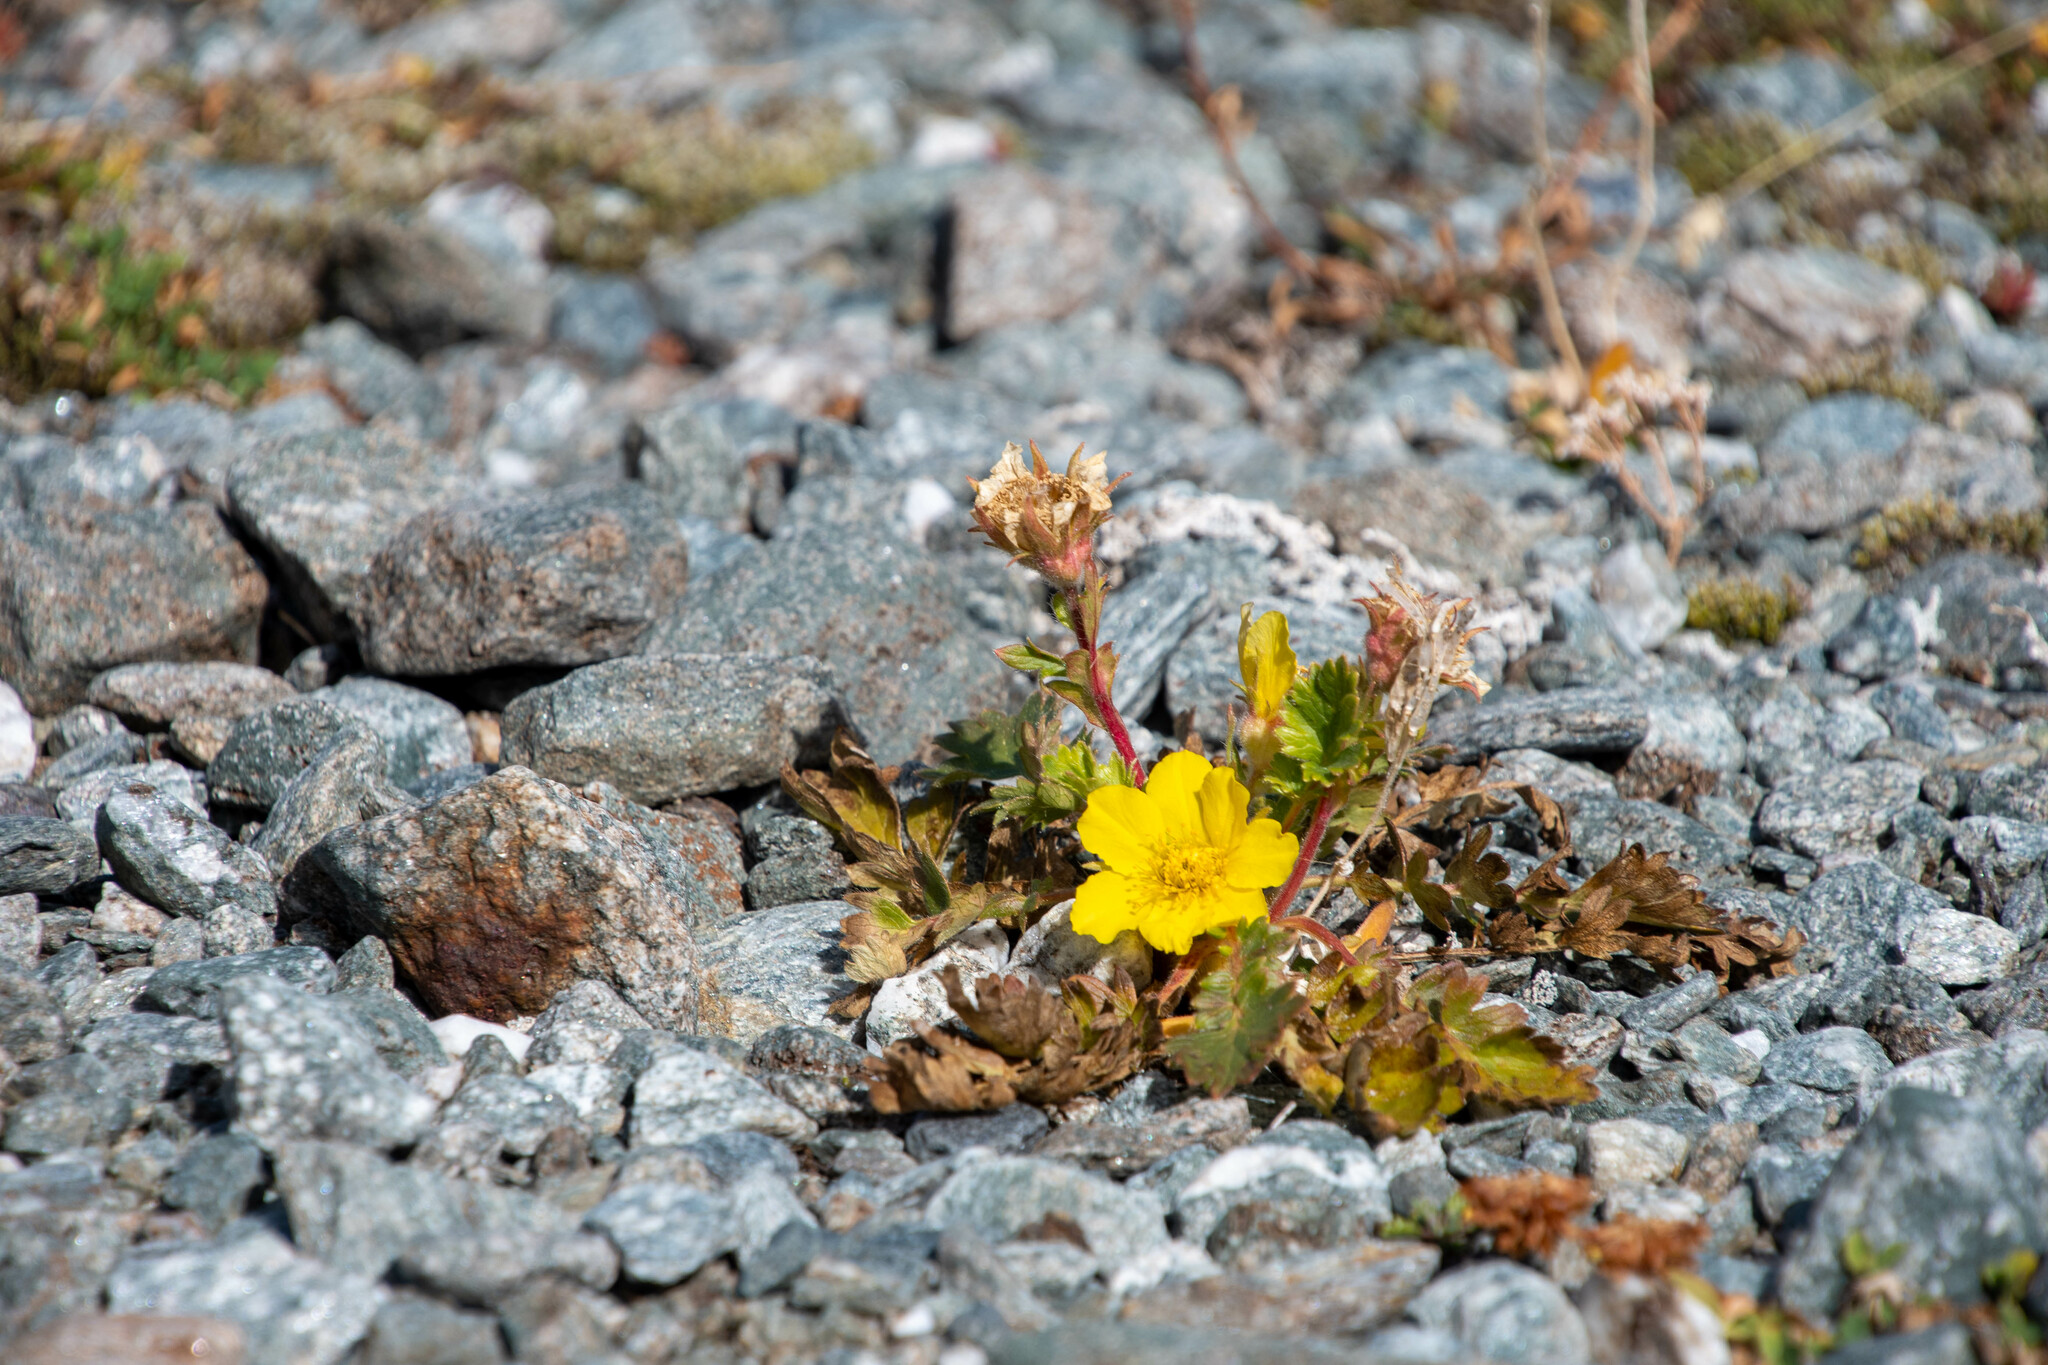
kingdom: Plantae
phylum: Tracheophyta
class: Magnoliopsida
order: Rosales
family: Rosaceae
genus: Geum
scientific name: Geum reptans
